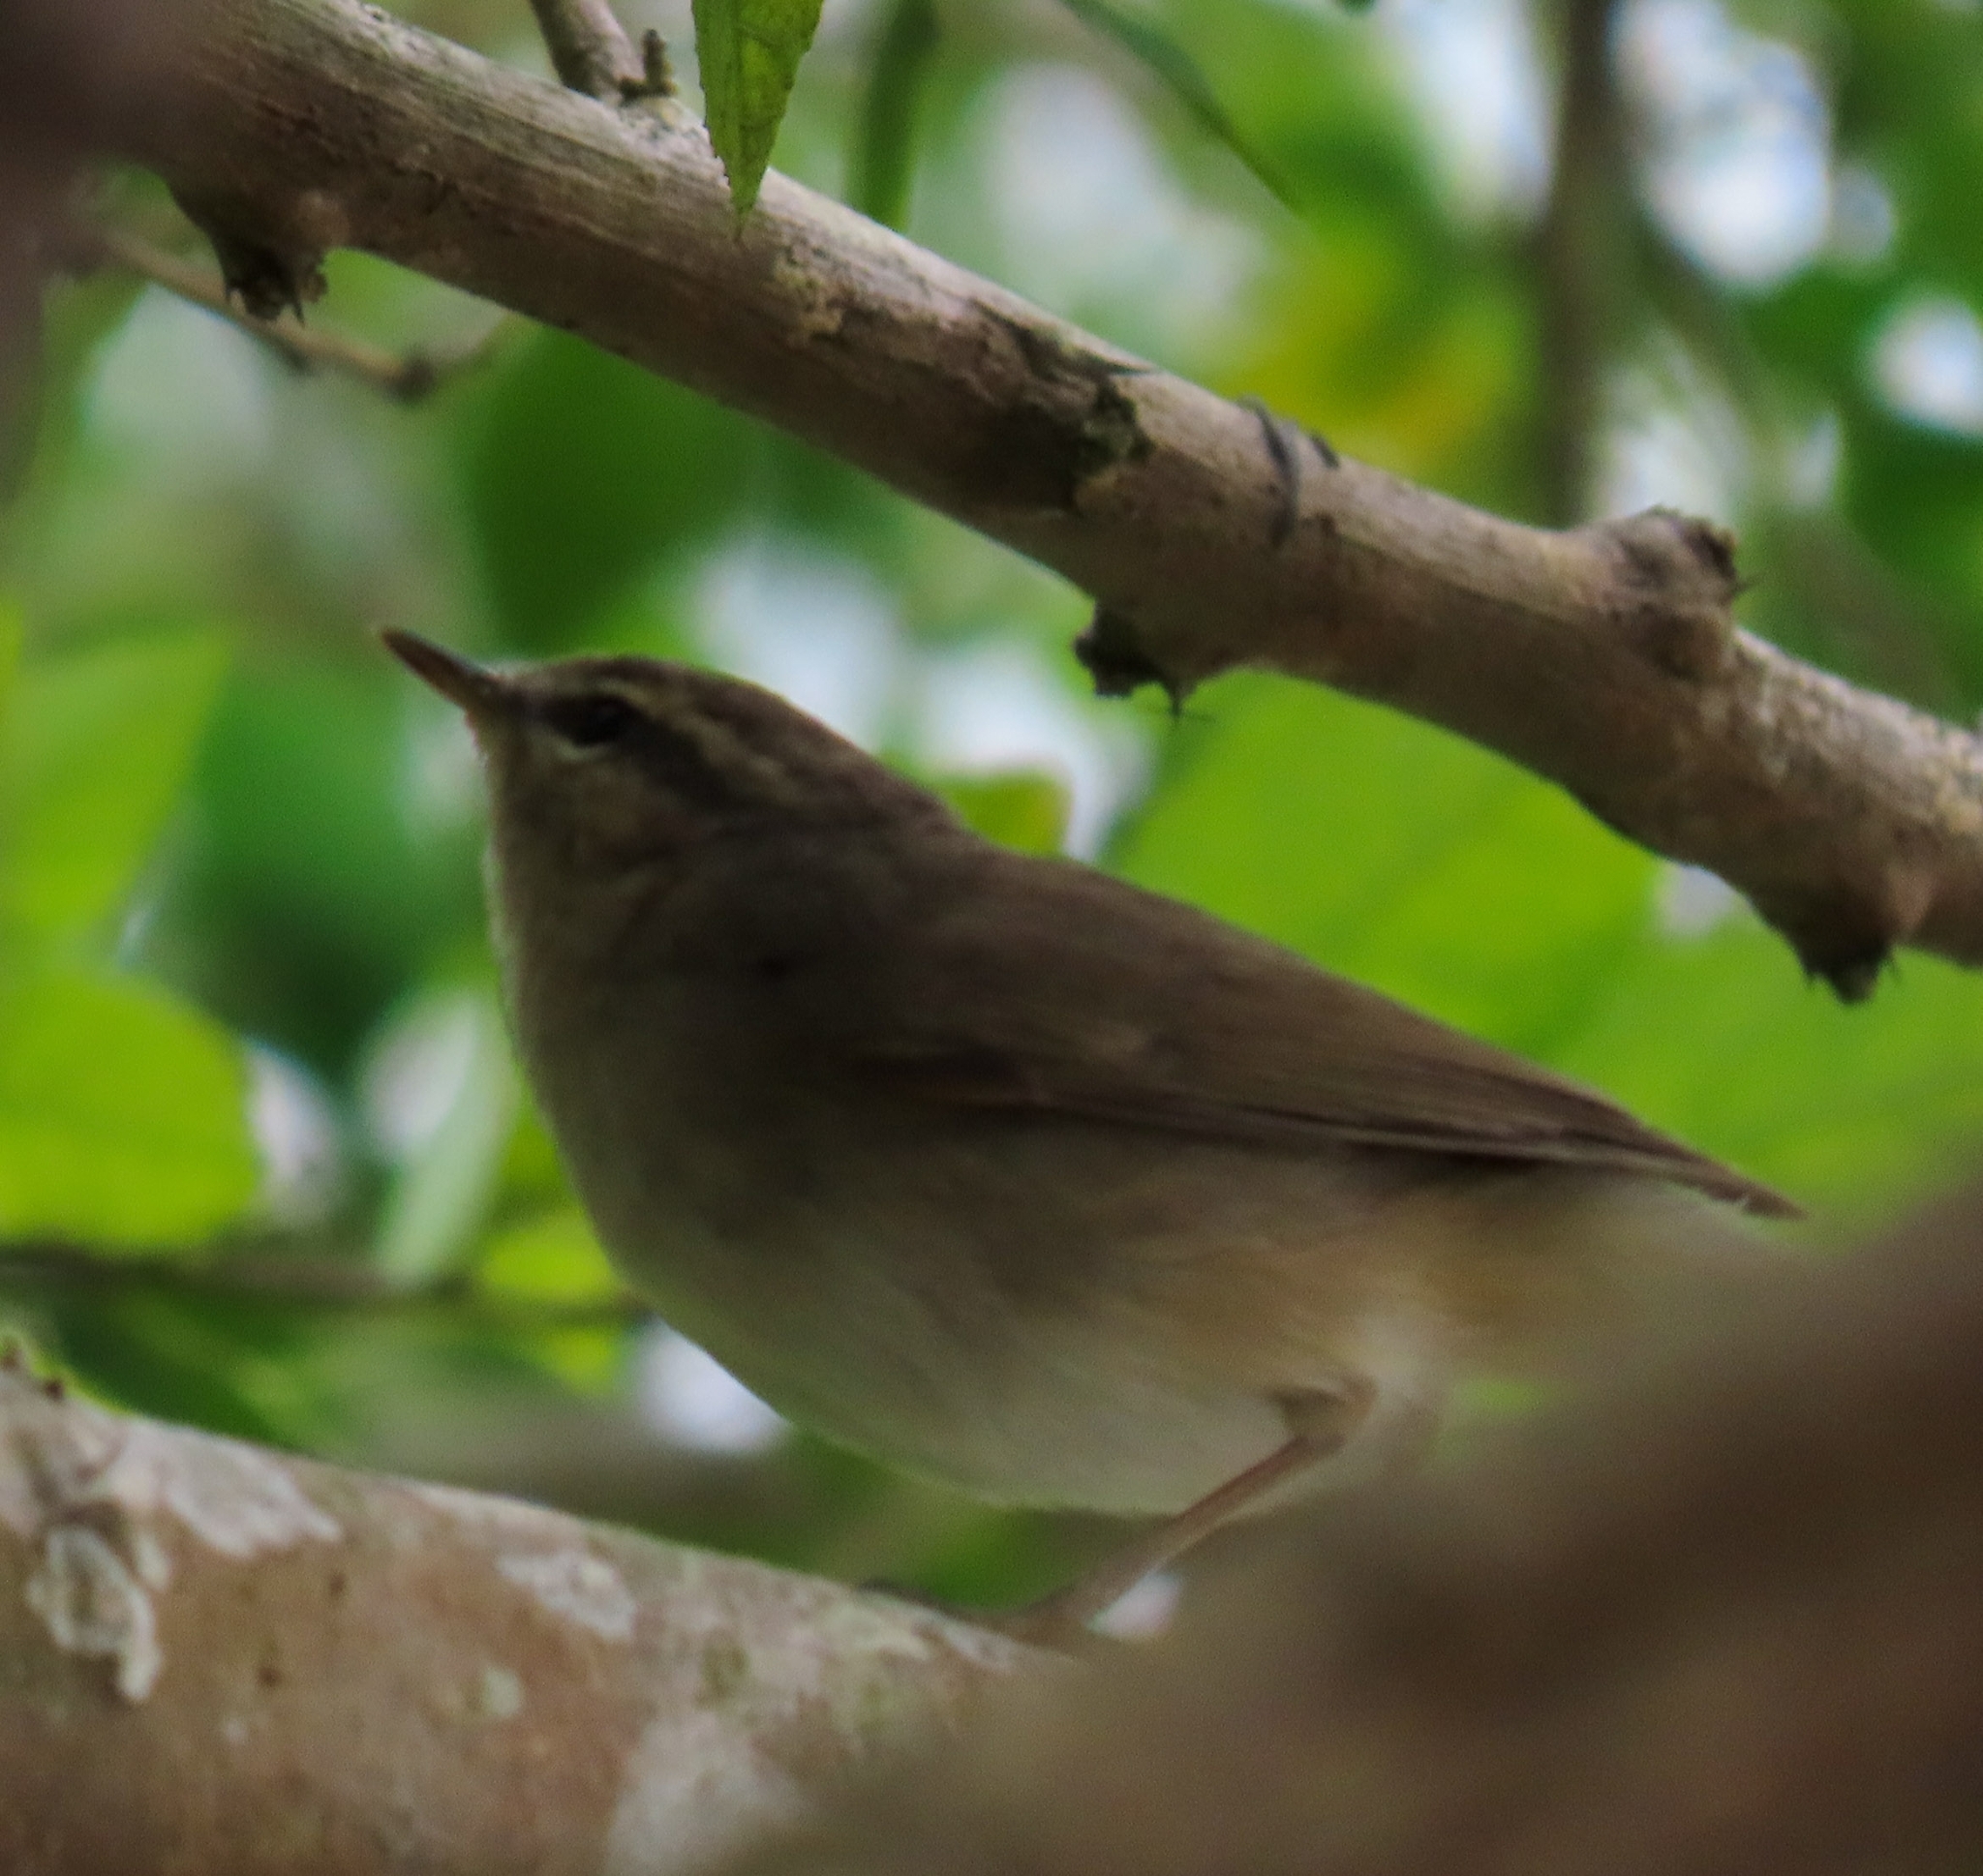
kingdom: Animalia
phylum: Chordata
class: Aves
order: Passeriformes
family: Phylloscopidae
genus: Phylloscopus
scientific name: Phylloscopus fuscatus
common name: Dusky warbler
